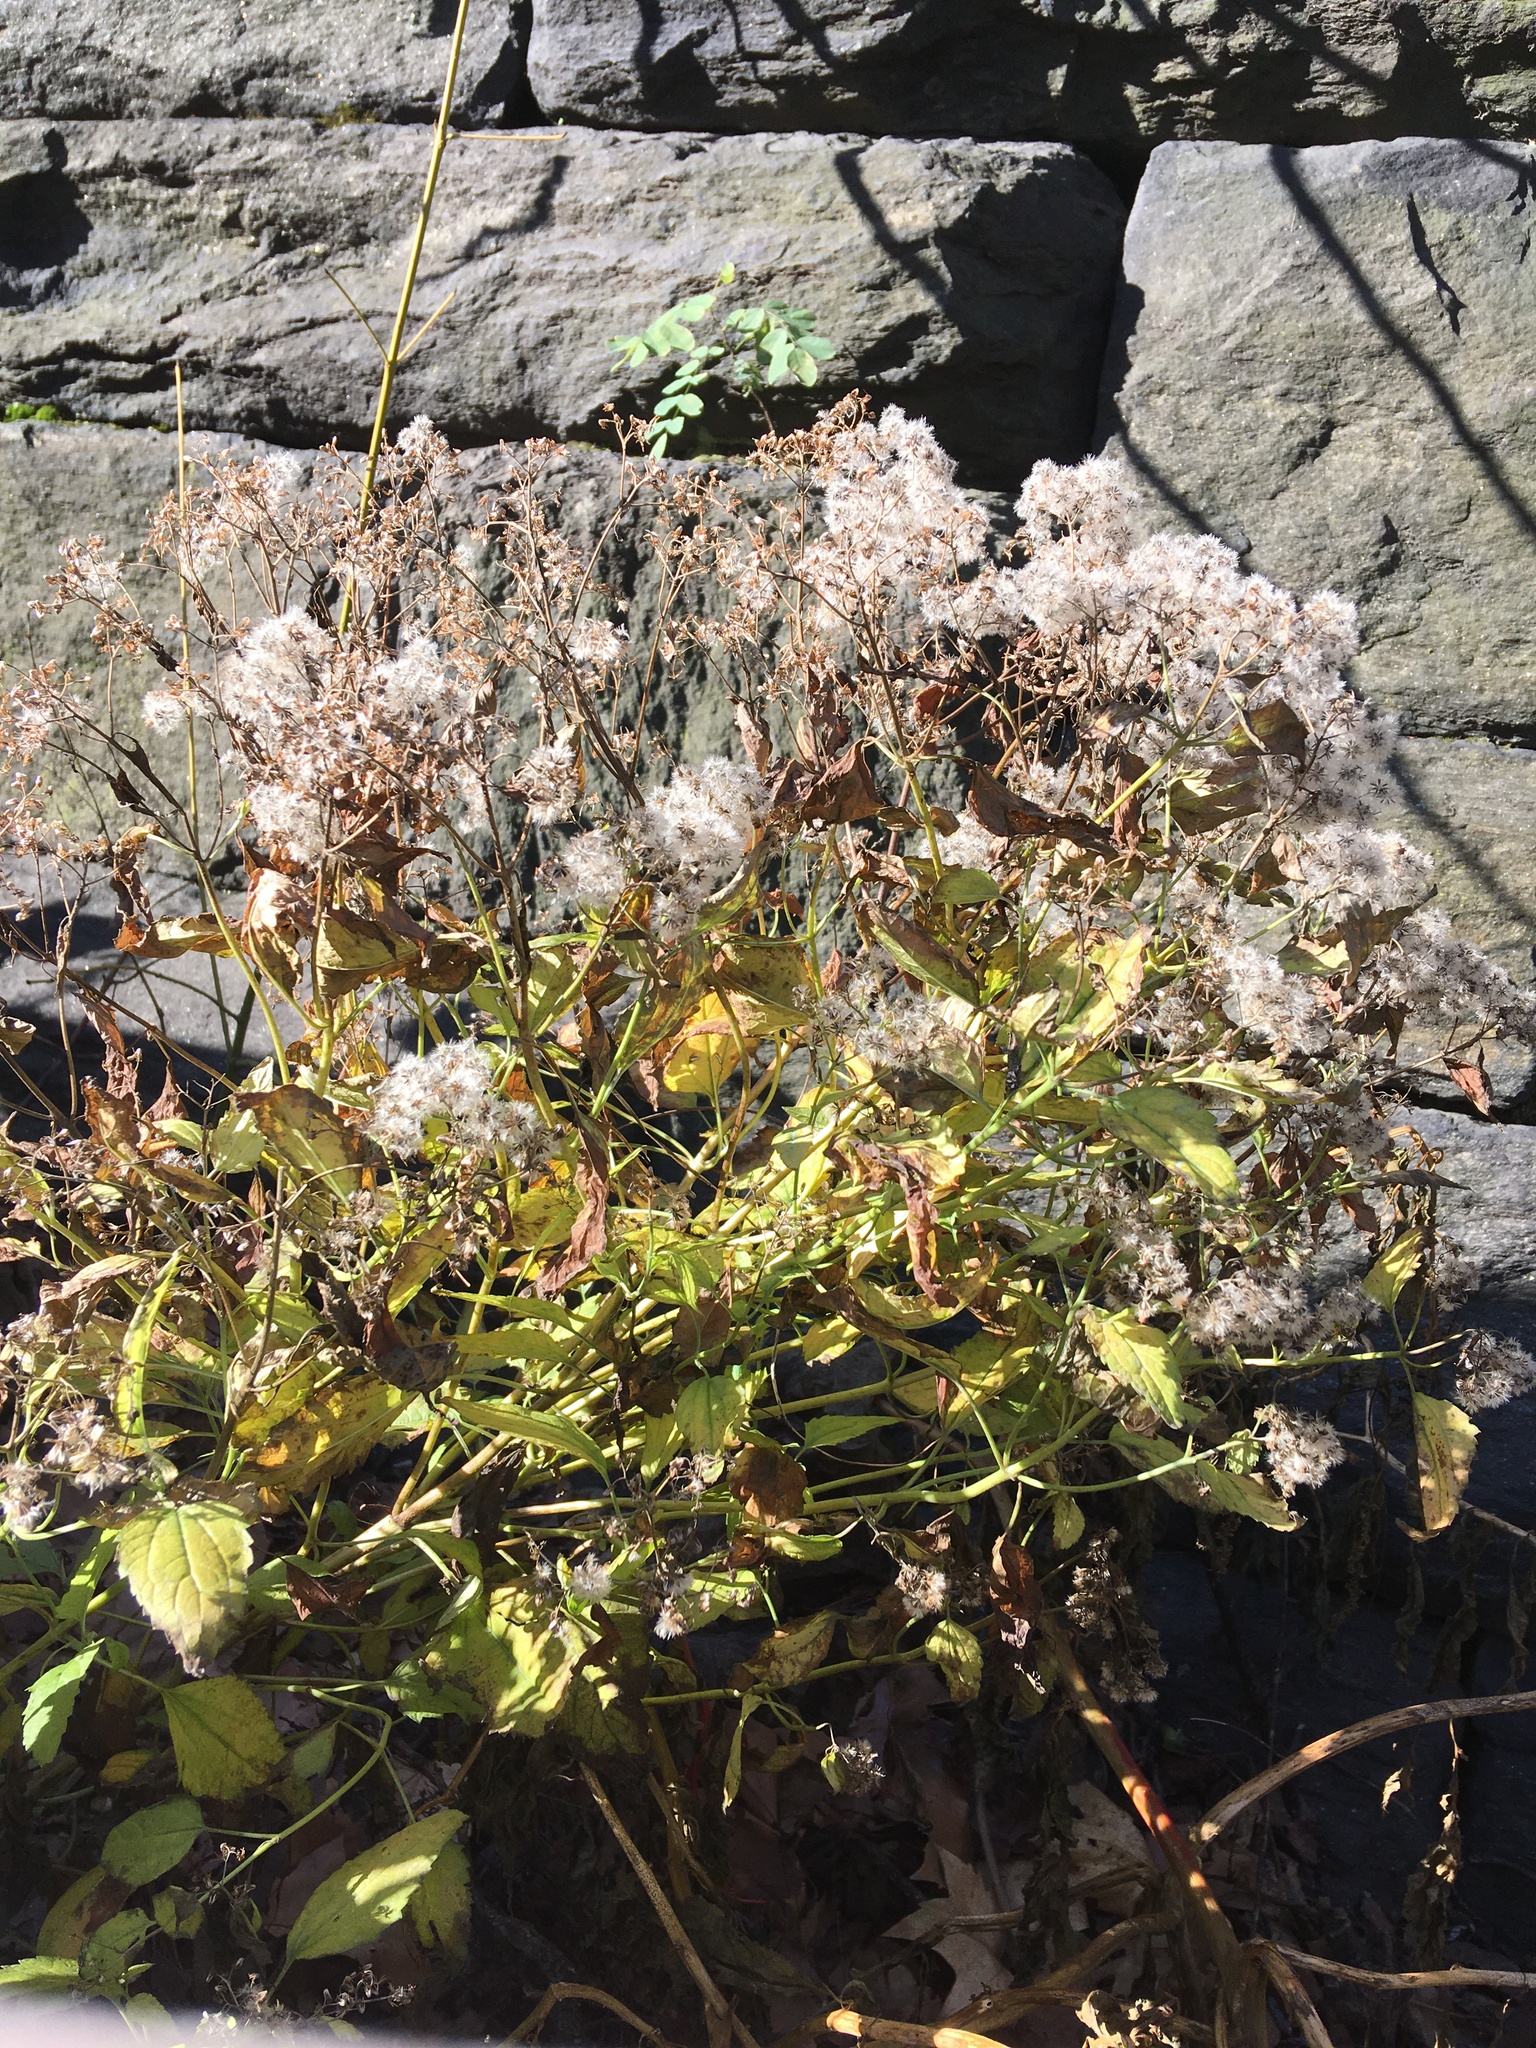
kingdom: Plantae
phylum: Tracheophyta
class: Magnoliopsida
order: Asterales
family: Asteraceae
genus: Ageratina
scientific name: Ageratina altissima
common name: White snakeroot
